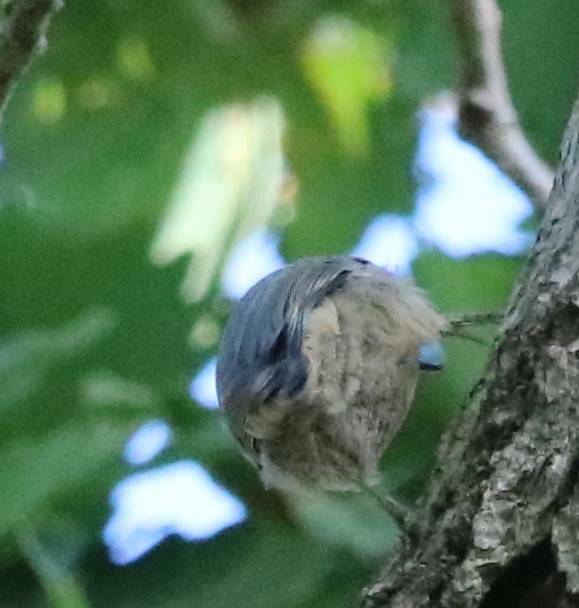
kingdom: Animalia
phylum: Chordata
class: Aves
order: Passeriformes
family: Sittidae
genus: Sitta
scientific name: Sitta ledanti
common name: Algerian nuthatch
